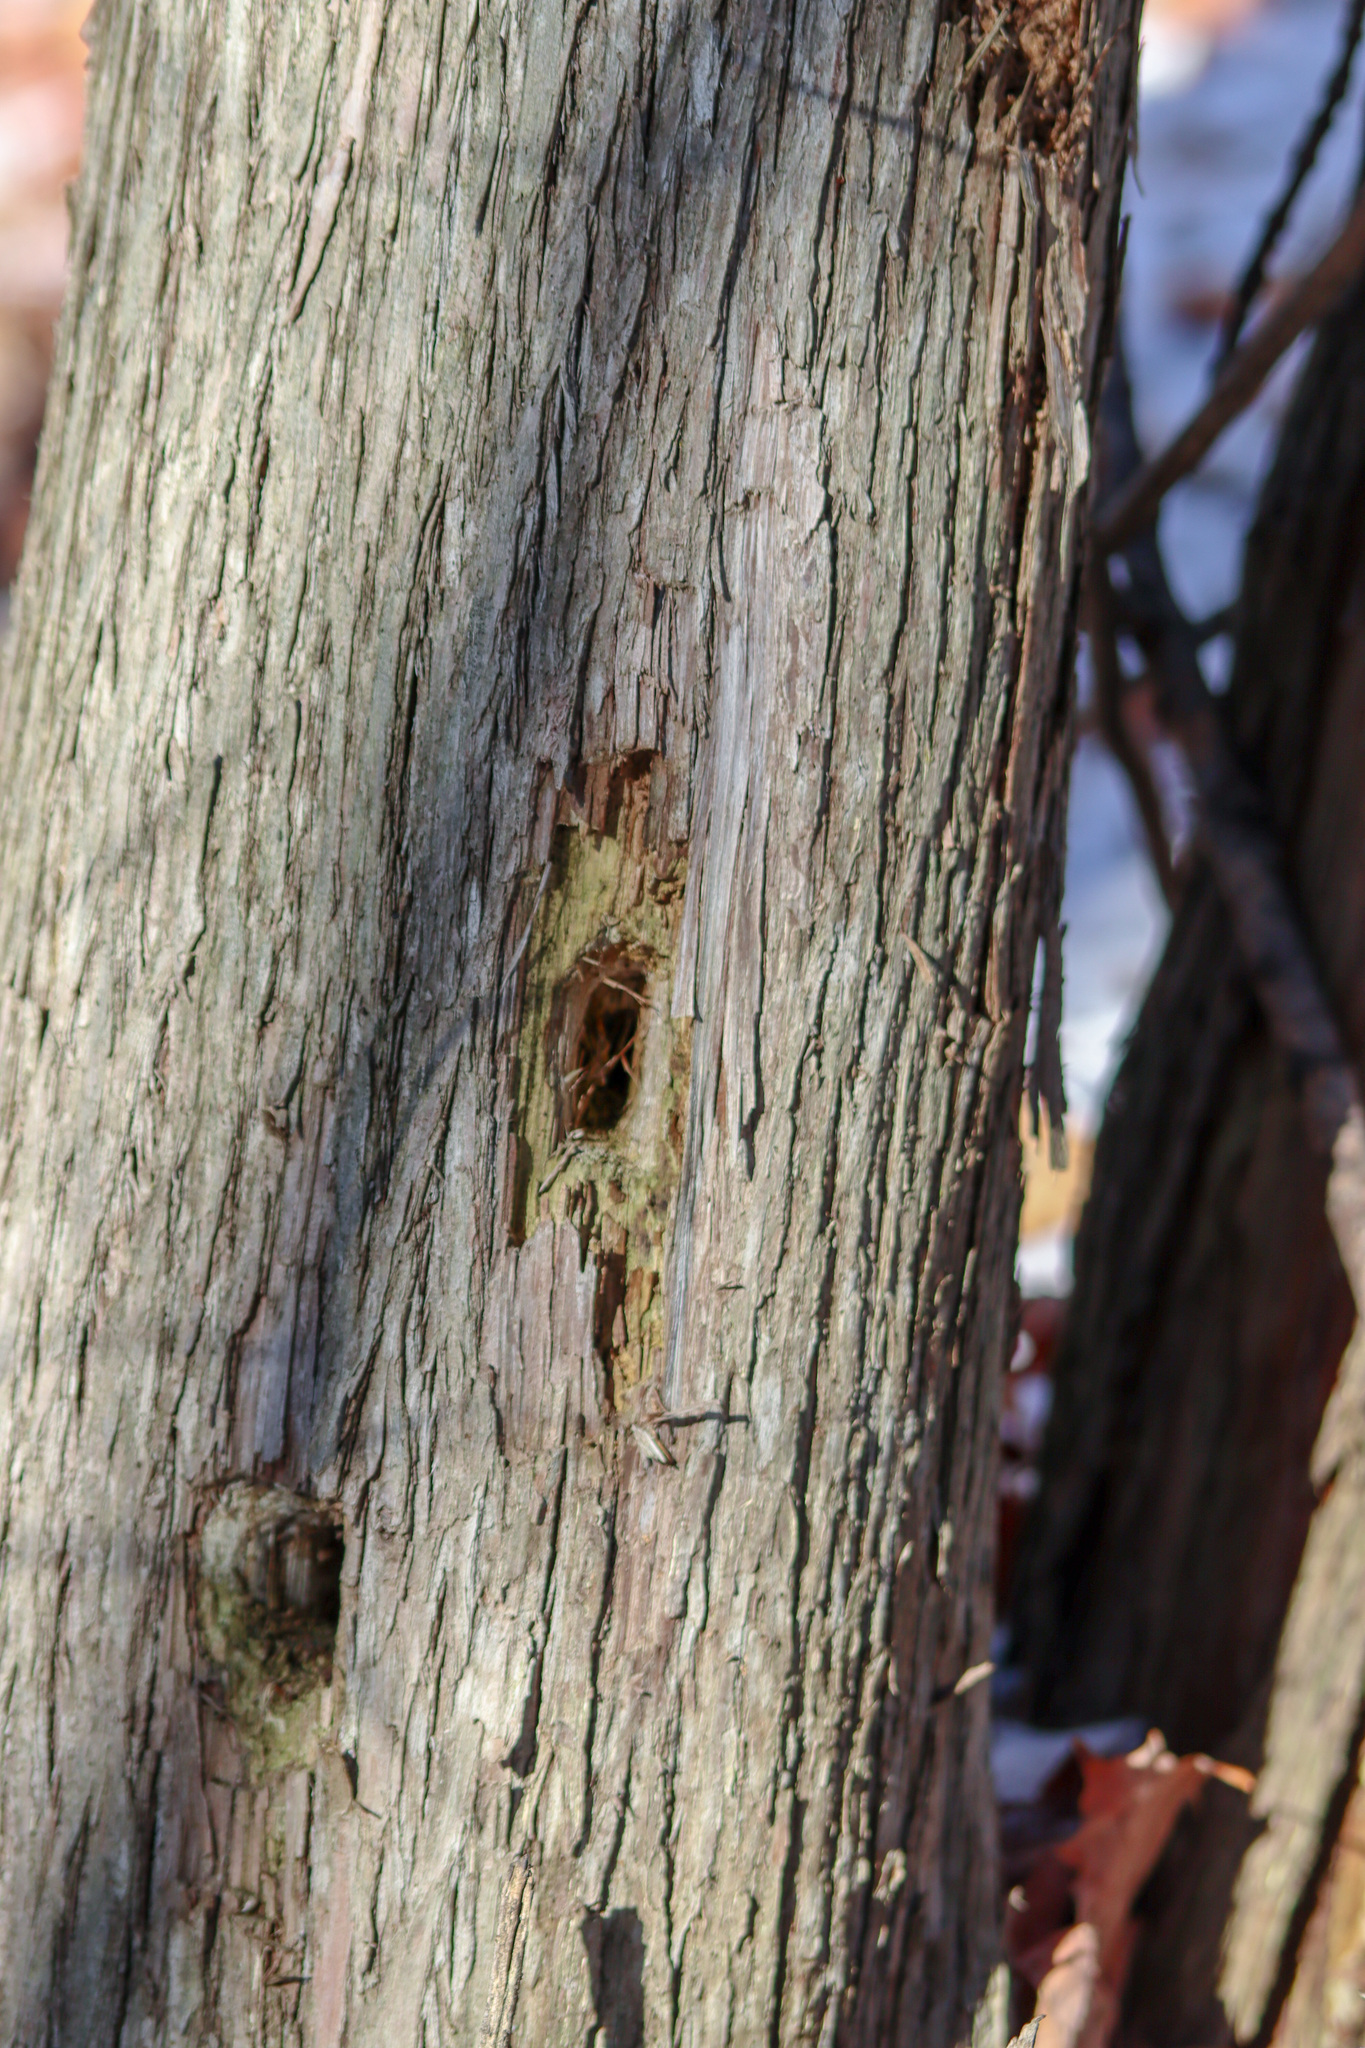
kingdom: Animalia
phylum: Chordata
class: Aves
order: Piciformes
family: Picidae
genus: Dryocopus
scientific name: Dryocopus pileatus
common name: Pileated woodpecker
